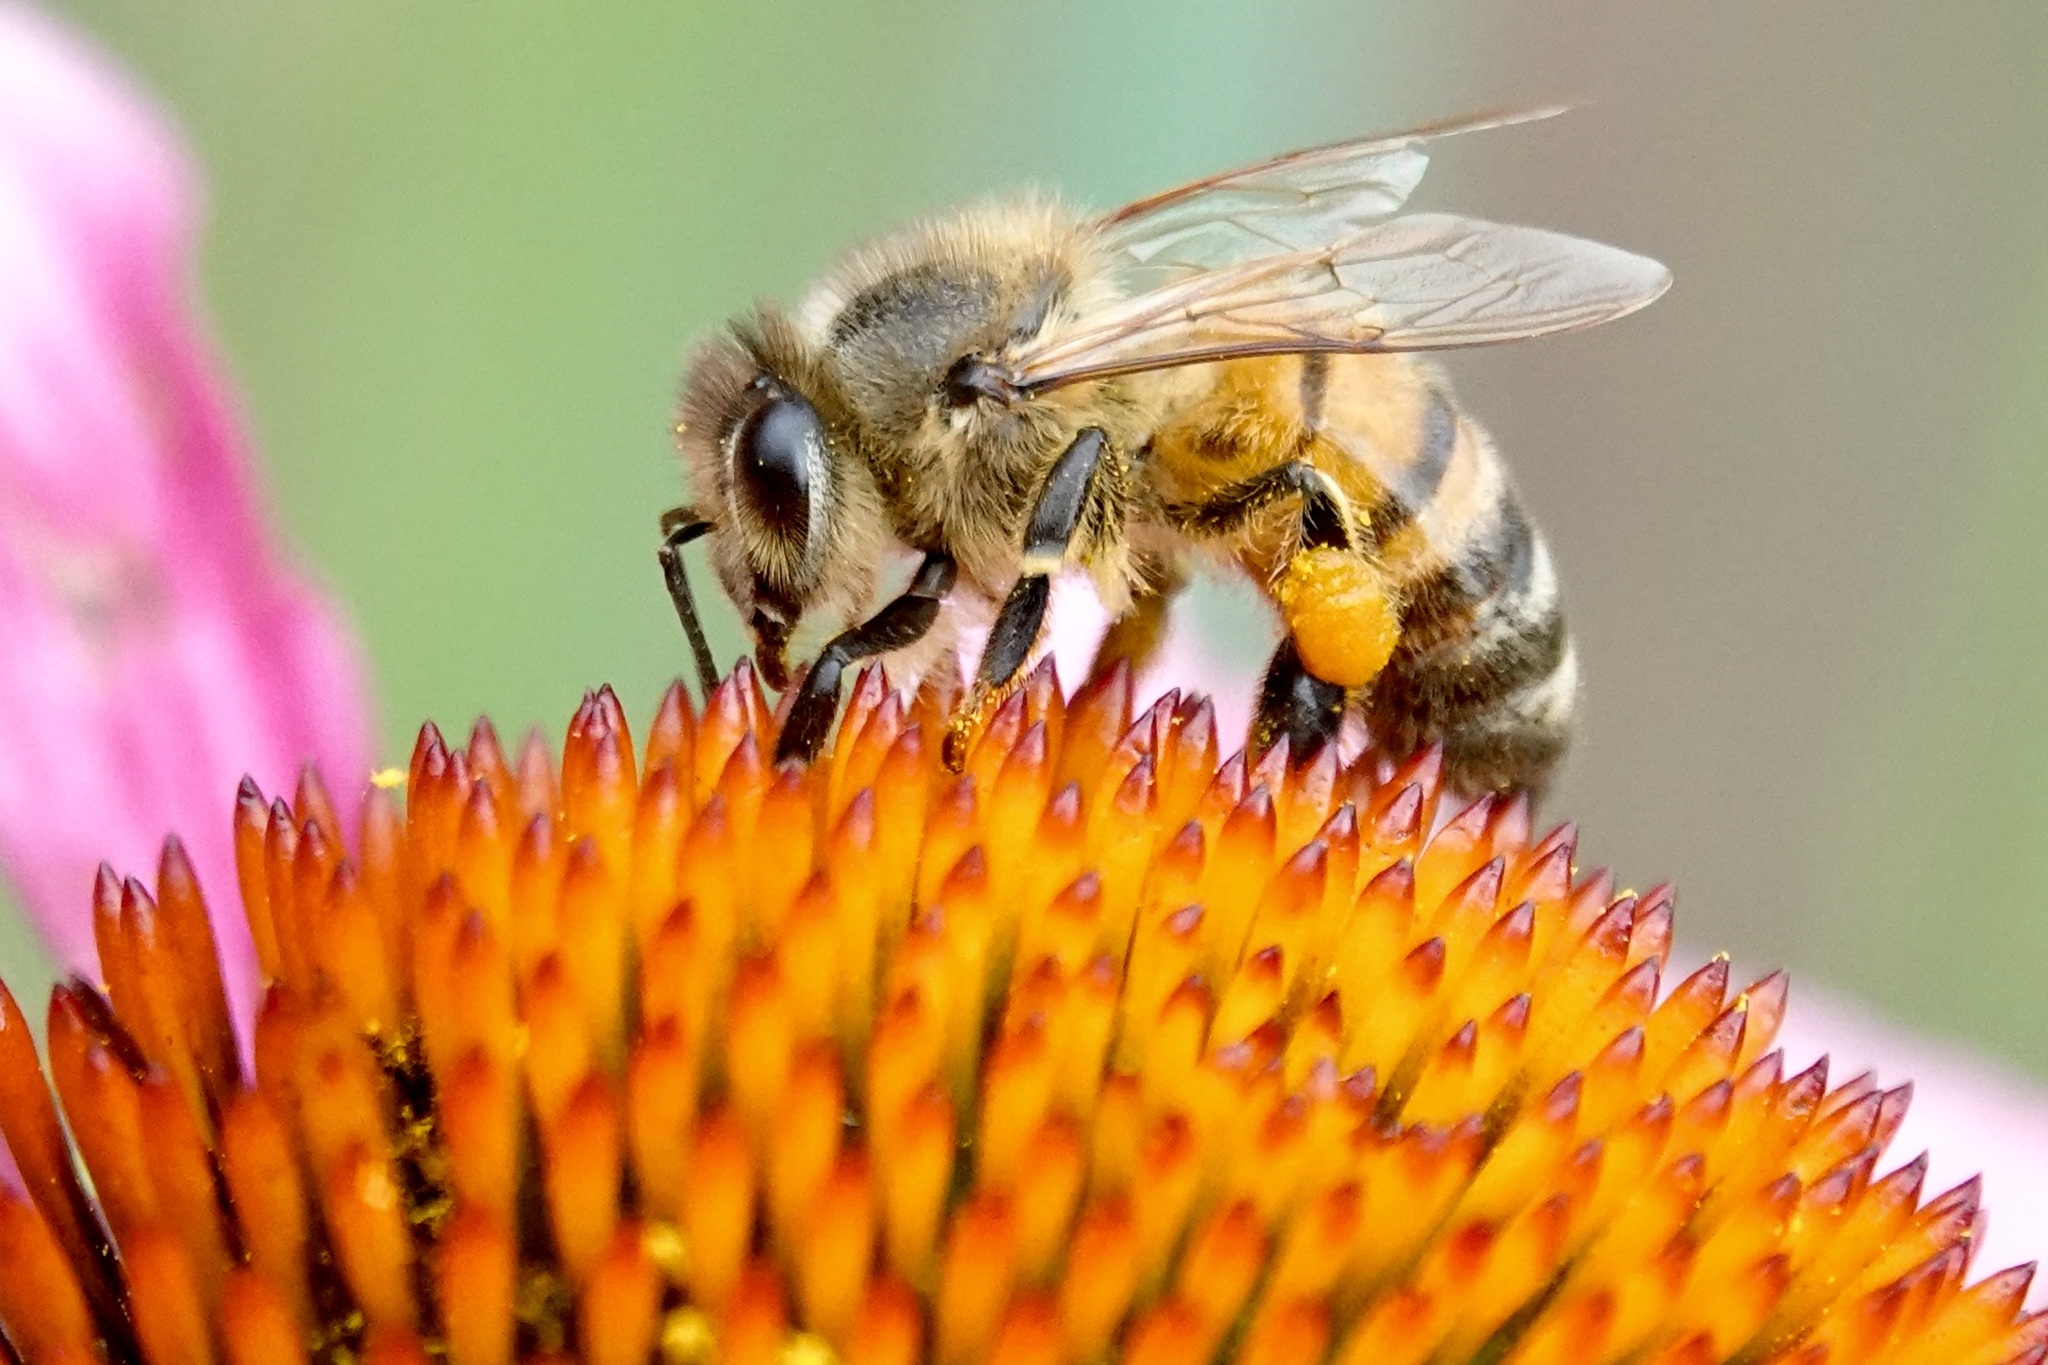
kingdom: Animalia
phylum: Arthropoda
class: Insecta
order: Hymenoptera
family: Apidae
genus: Apis
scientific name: Apis mellifera
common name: Honey bee
